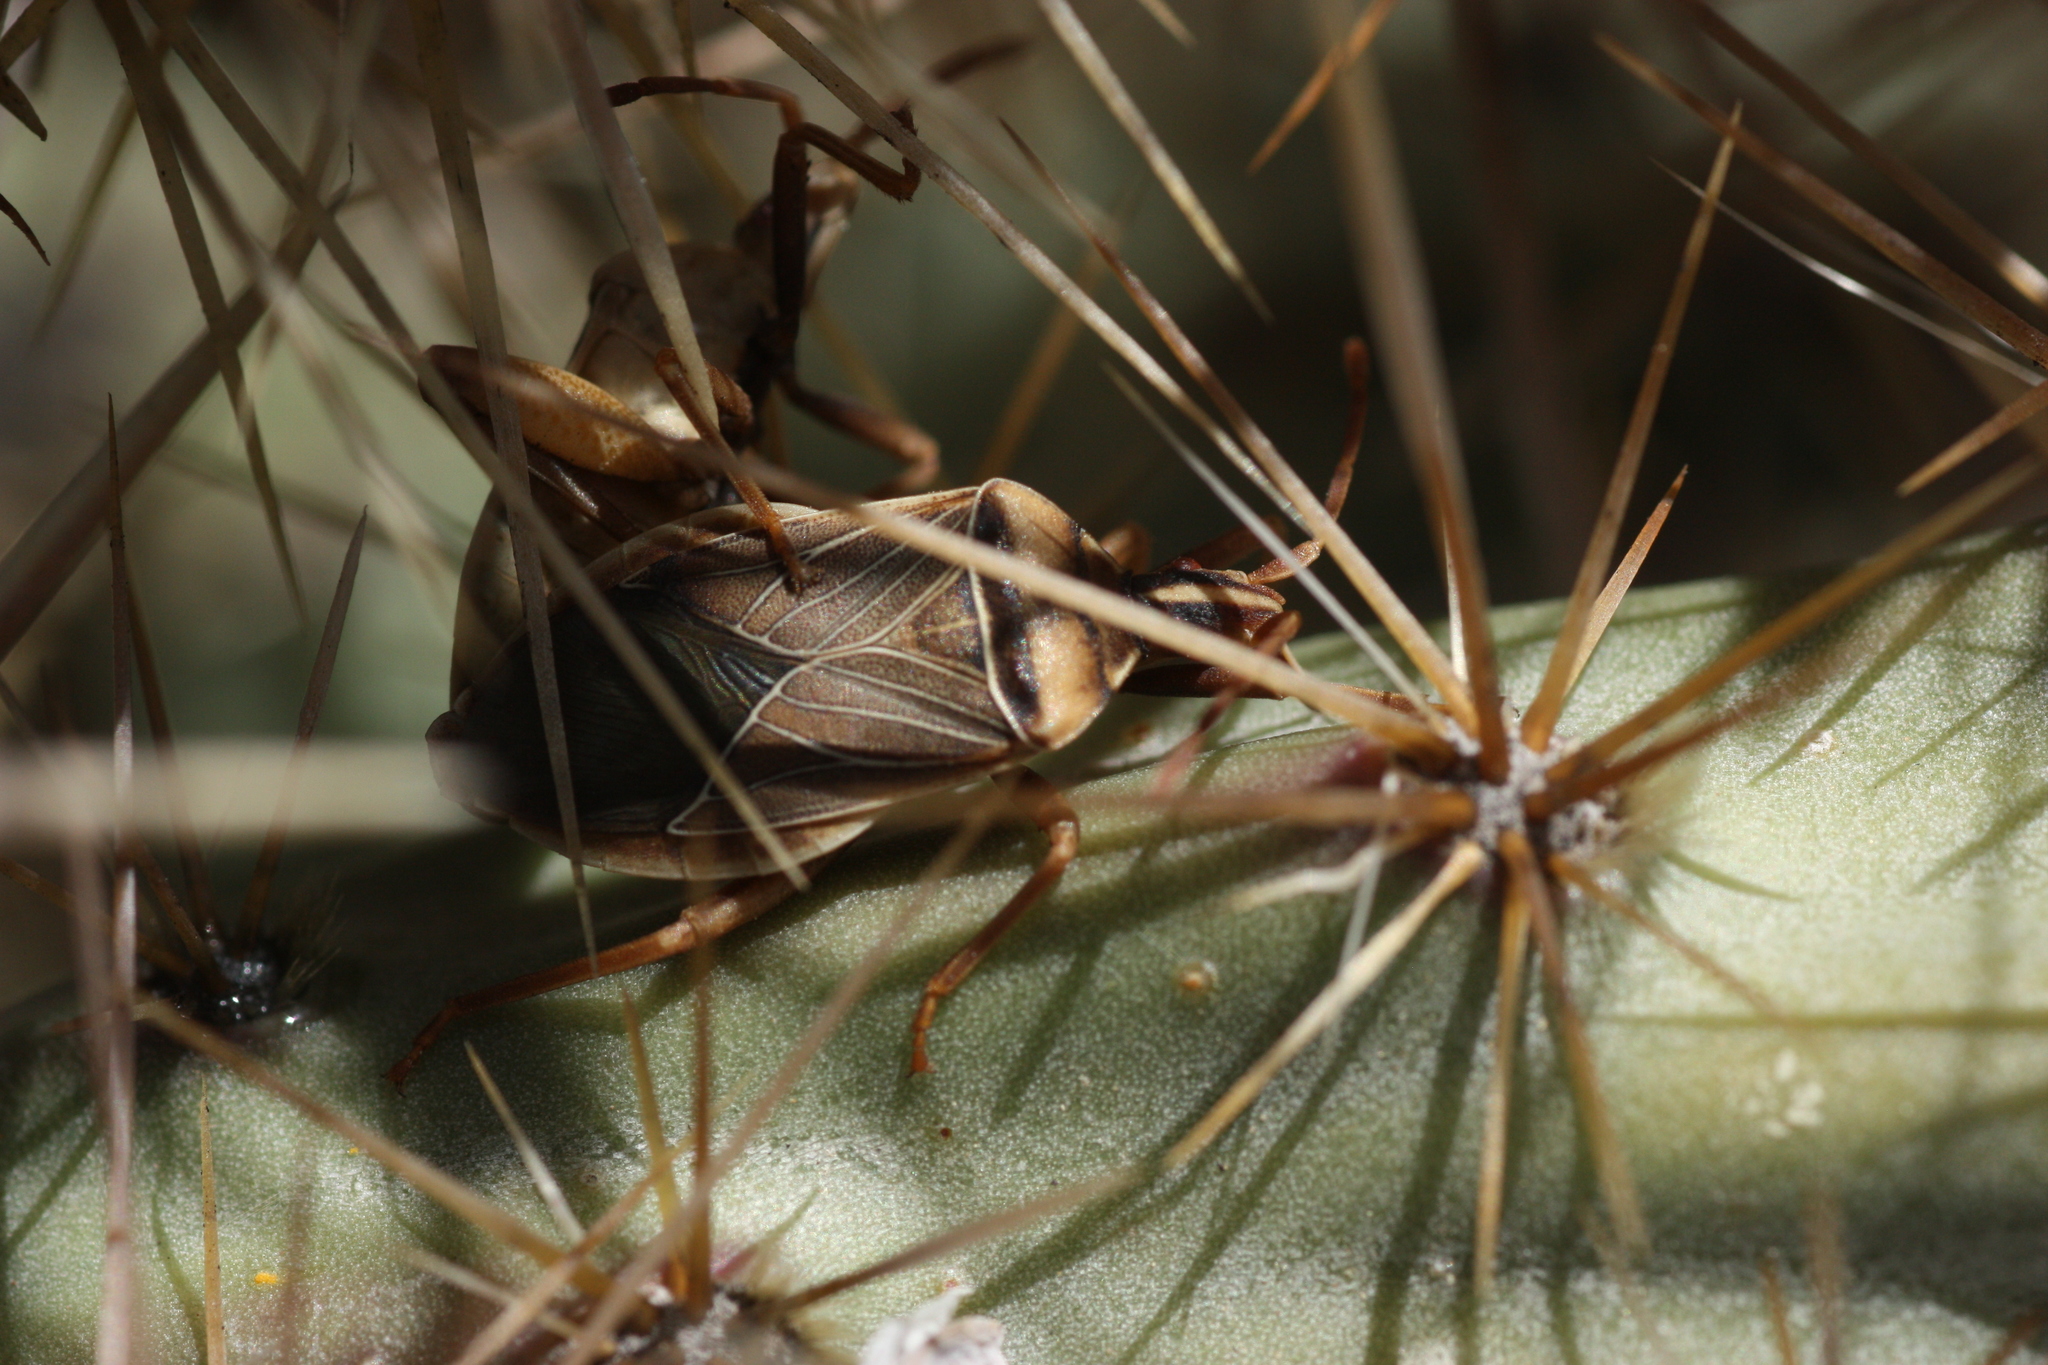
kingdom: Animalia
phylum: Arthropoda
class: Insecta
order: Hemiptera
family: Coreidae
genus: Chelinidea
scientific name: Chelinidea vittiger
